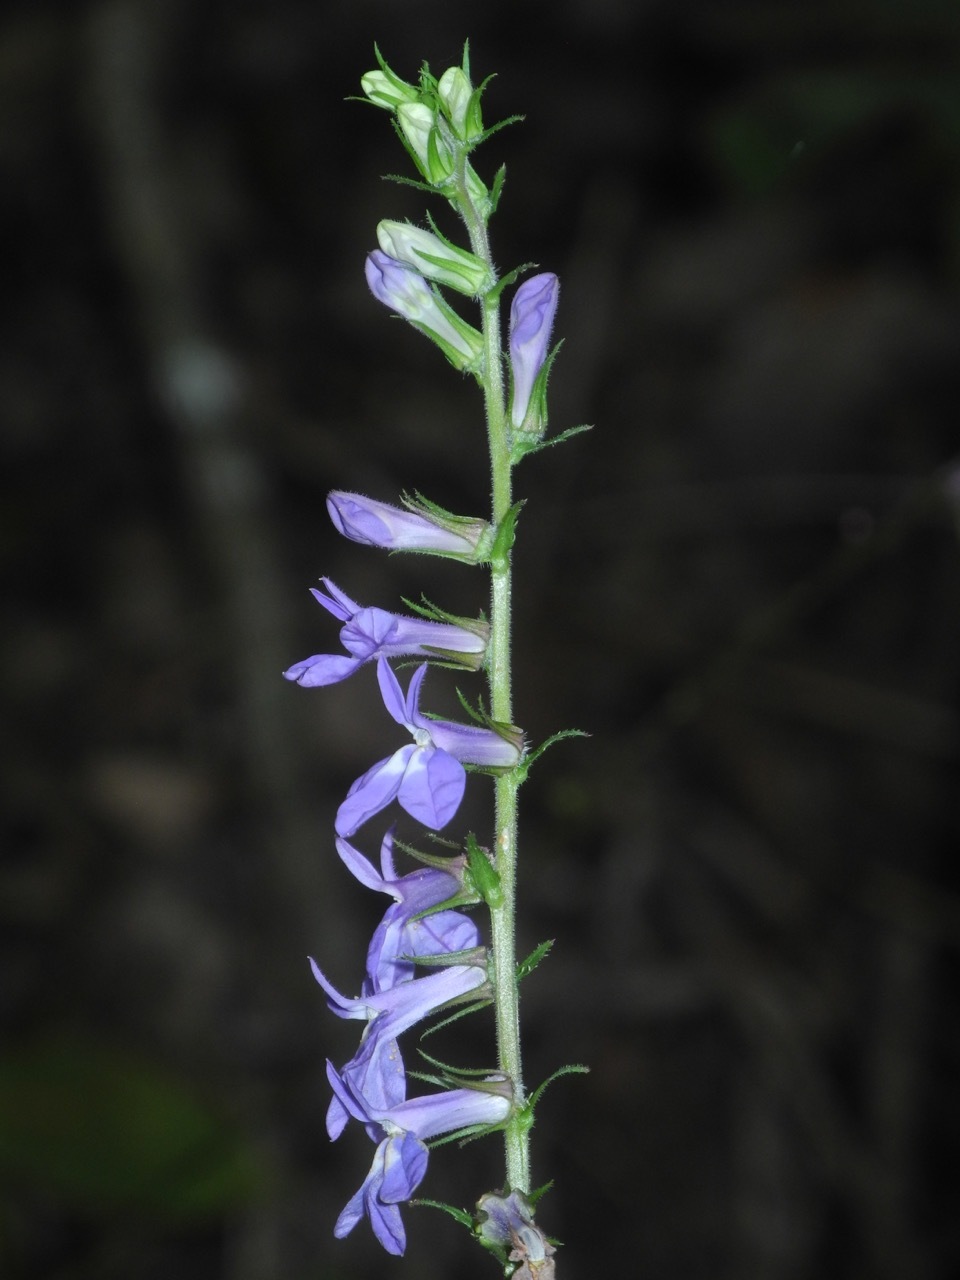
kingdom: Plantae
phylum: Tracheophyta
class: Magnoliopsida
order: Asterales
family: Campanulaceae
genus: Lobelia
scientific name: Lobelia puberula
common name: Purple dewdrop
